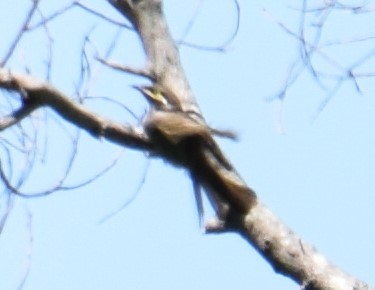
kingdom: Animalia
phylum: Chordata
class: Aves
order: Passeriformes
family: Meliphagidae
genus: Caligavis
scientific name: Caligavis chrysops
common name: Yellow-faced honeyeater
